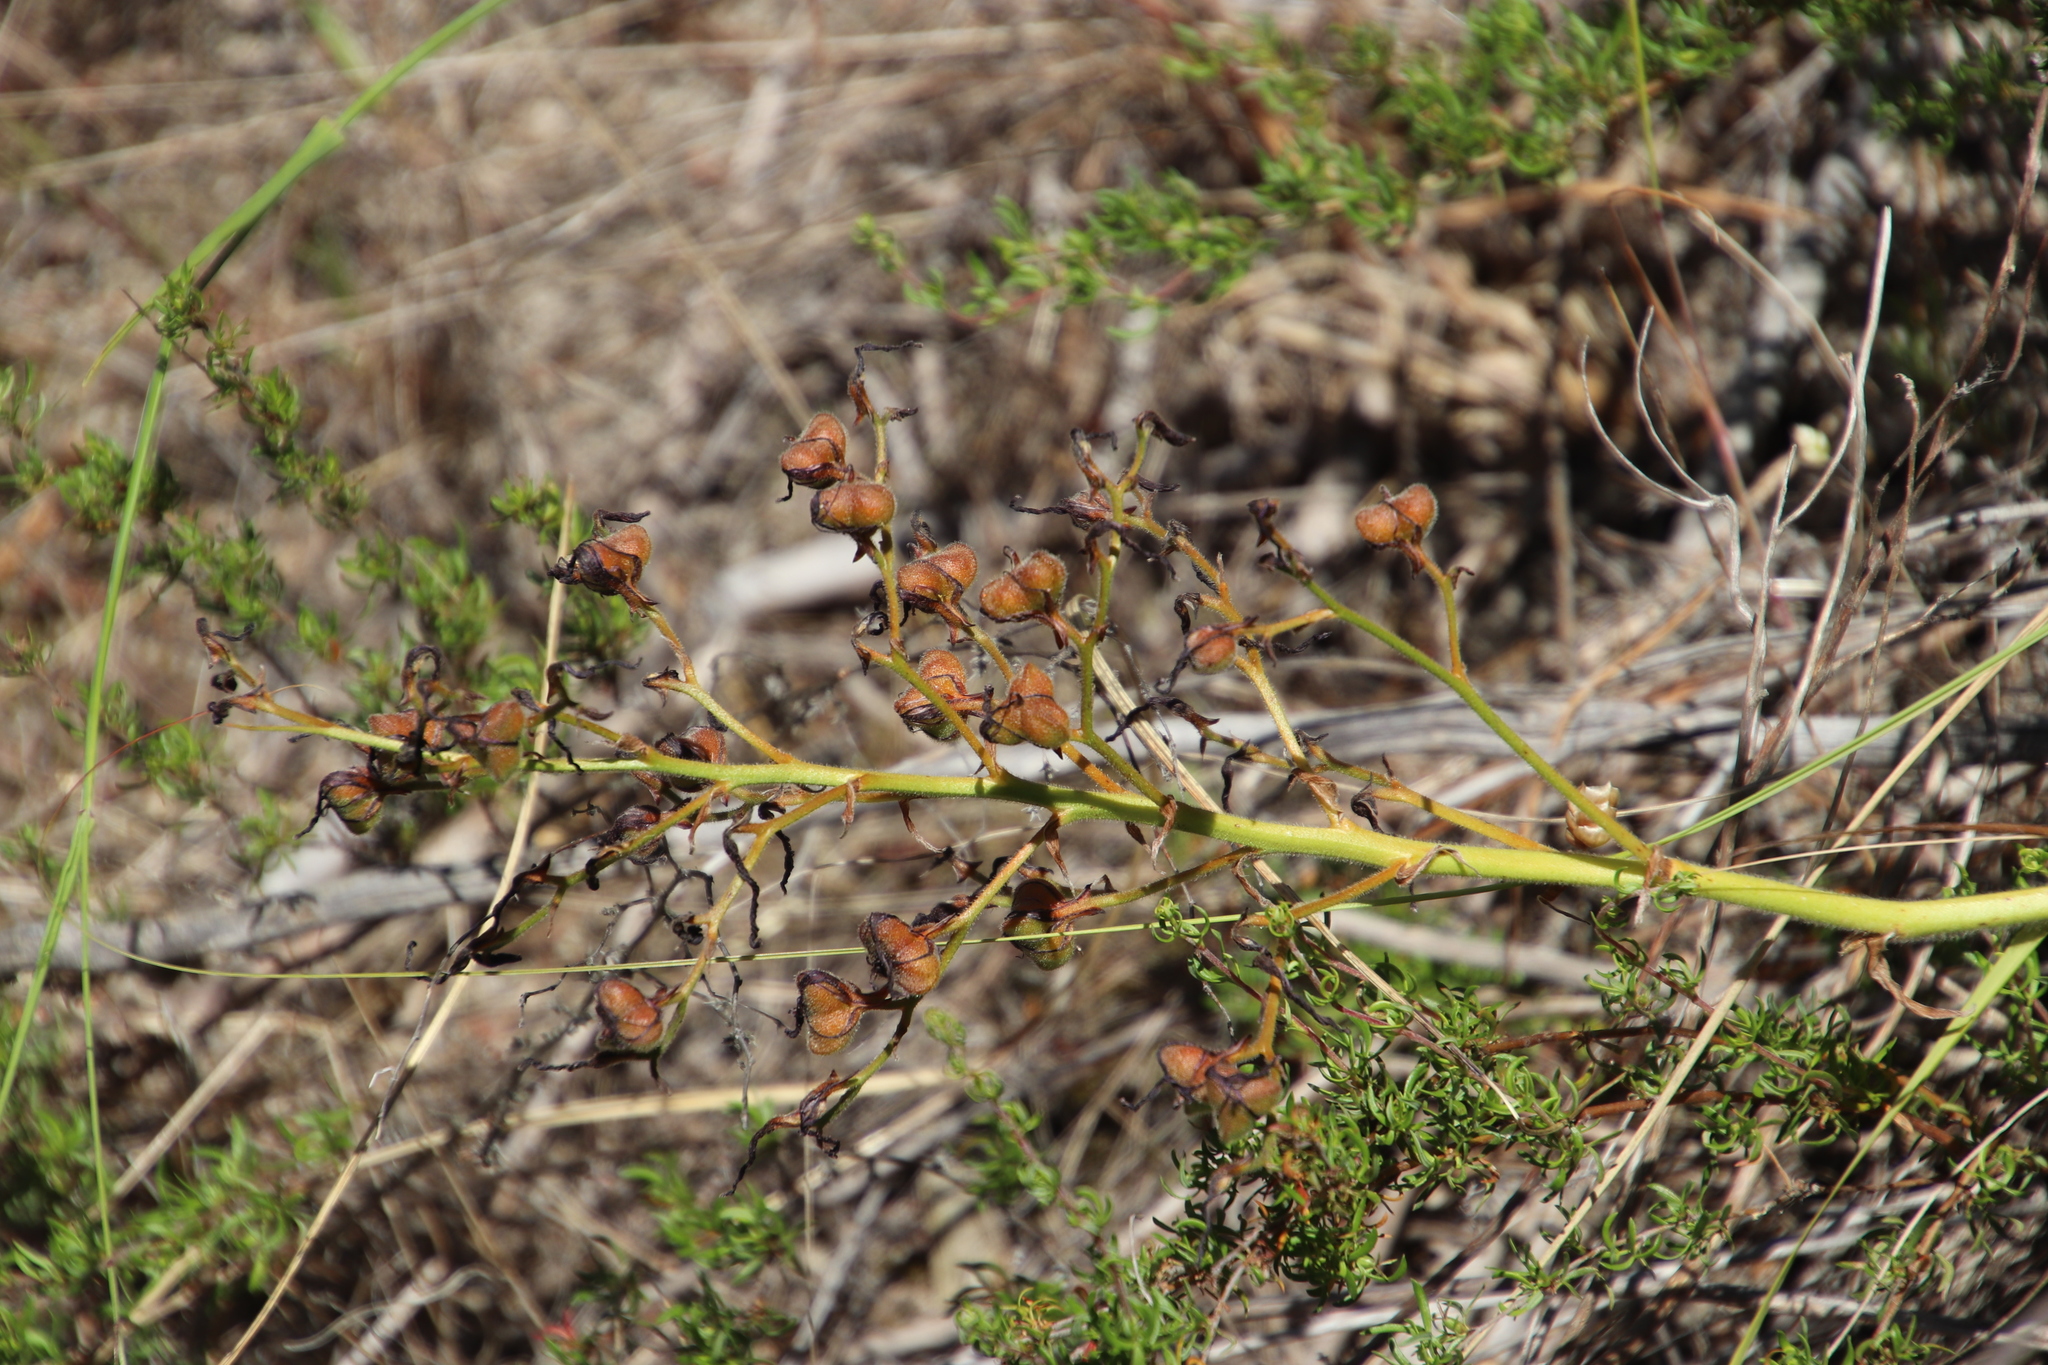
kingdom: Plantae
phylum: Tracheophyta
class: Liliopsida
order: Commelinales
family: Haemodoraceae
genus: Wachendorfia
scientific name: Wachendorfia paniculata
